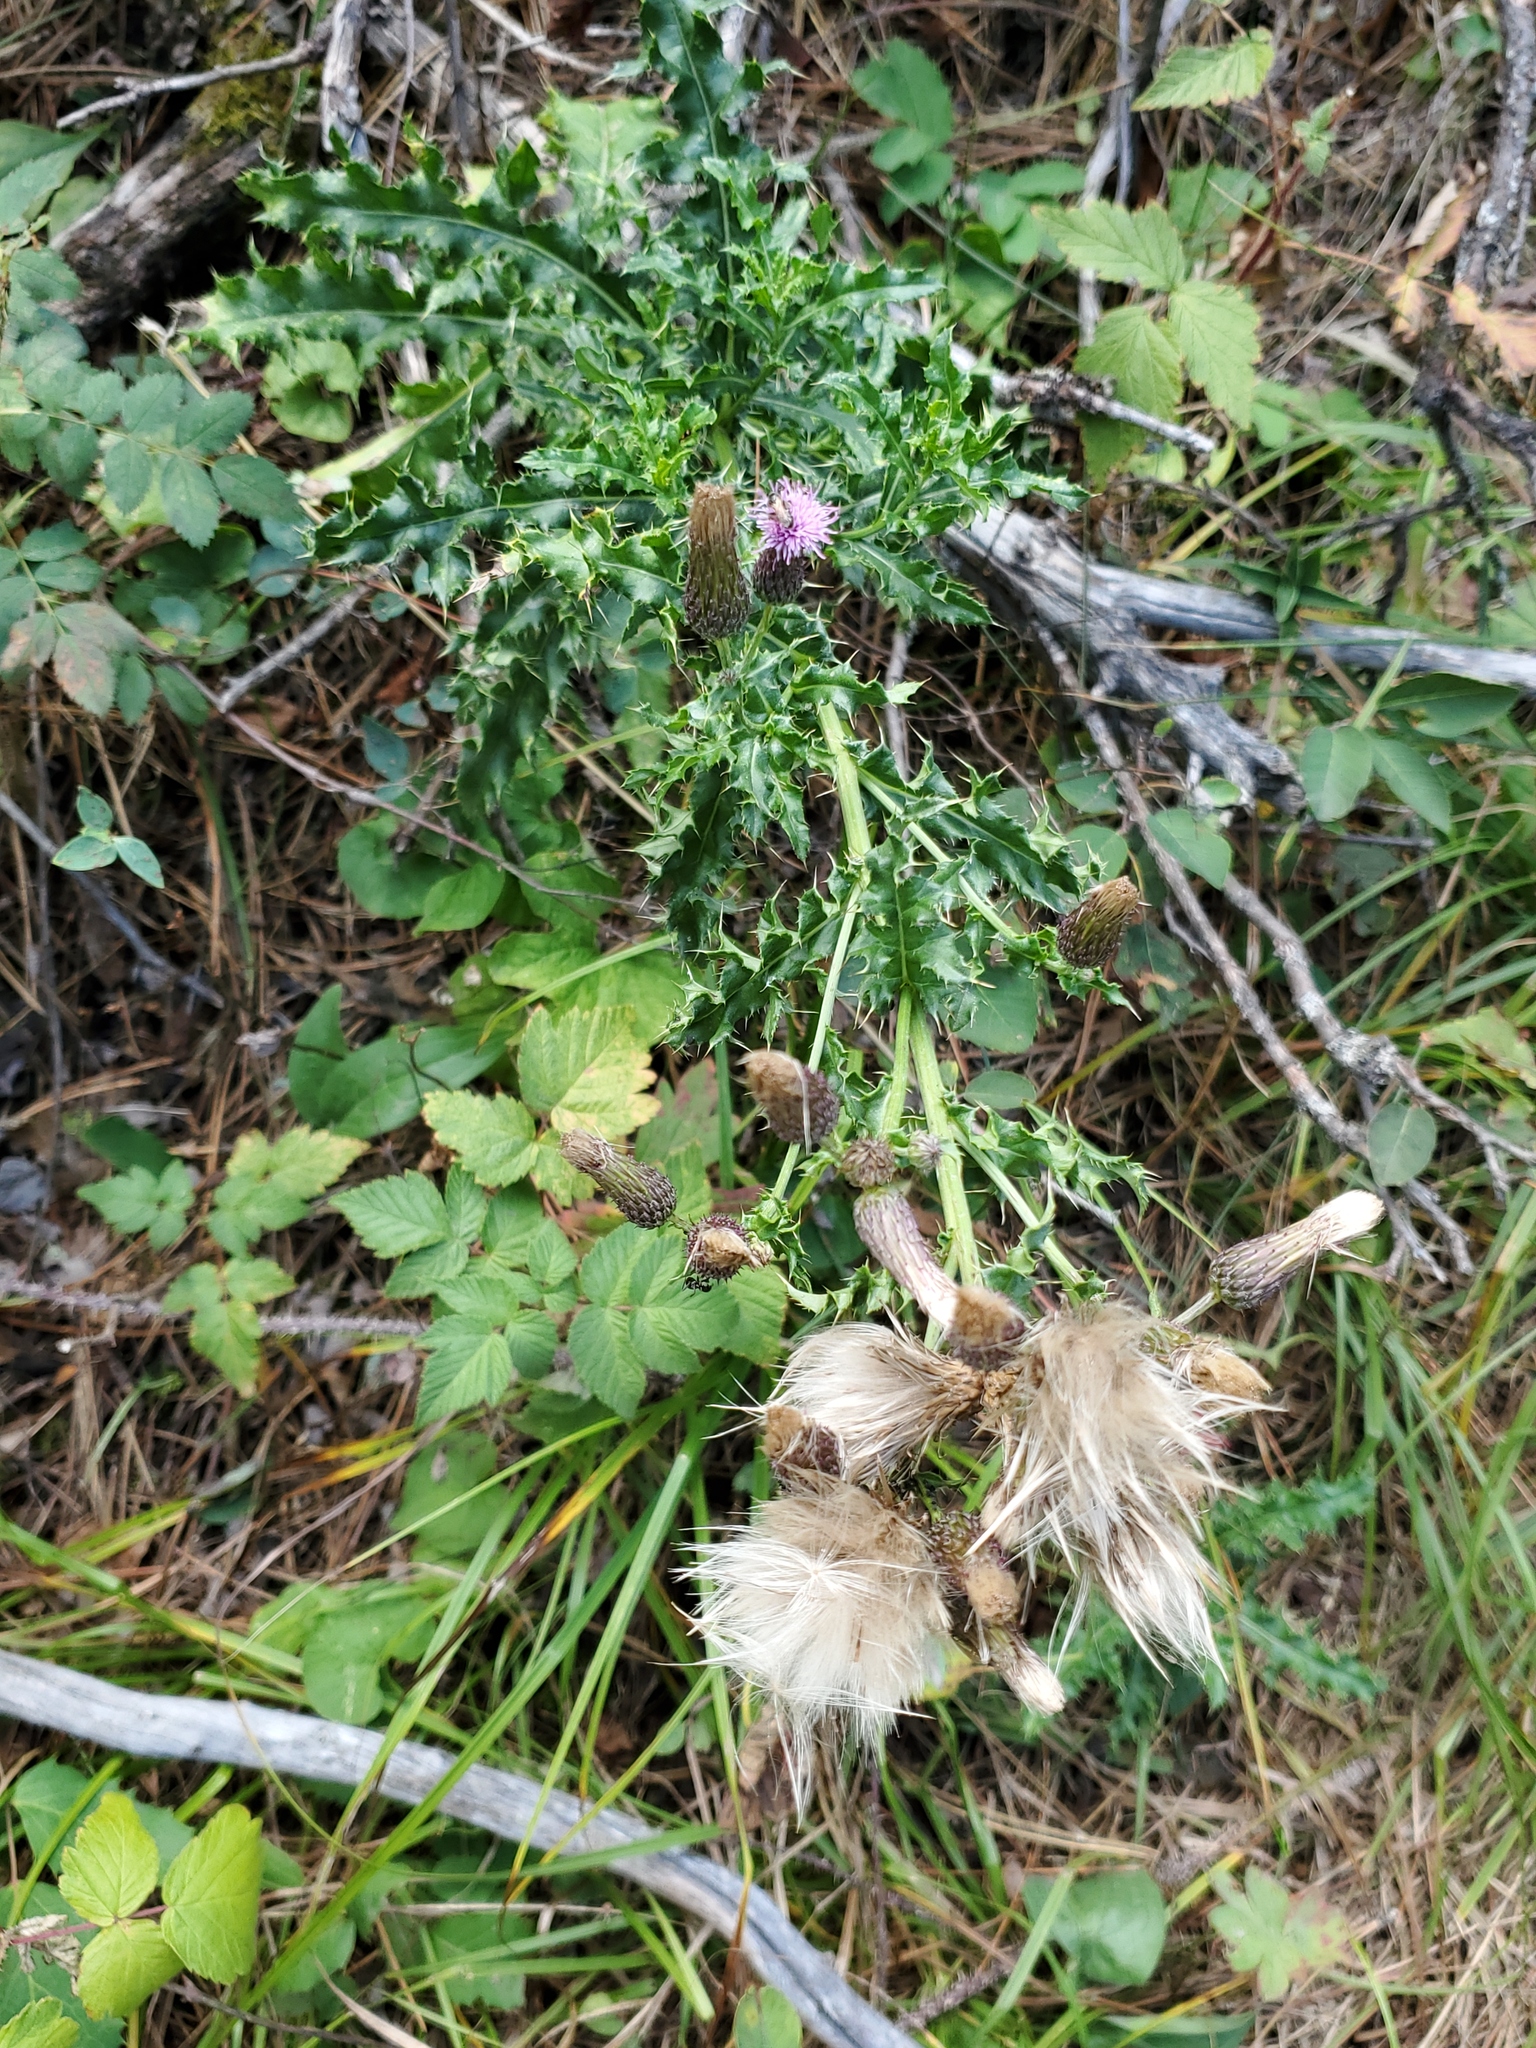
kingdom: Plantae
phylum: Tracheophyta
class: Magnoliopsida
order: Asterales
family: Asteraceae
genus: Cirsium
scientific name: Cirsium arvense
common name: Creeping thistle
